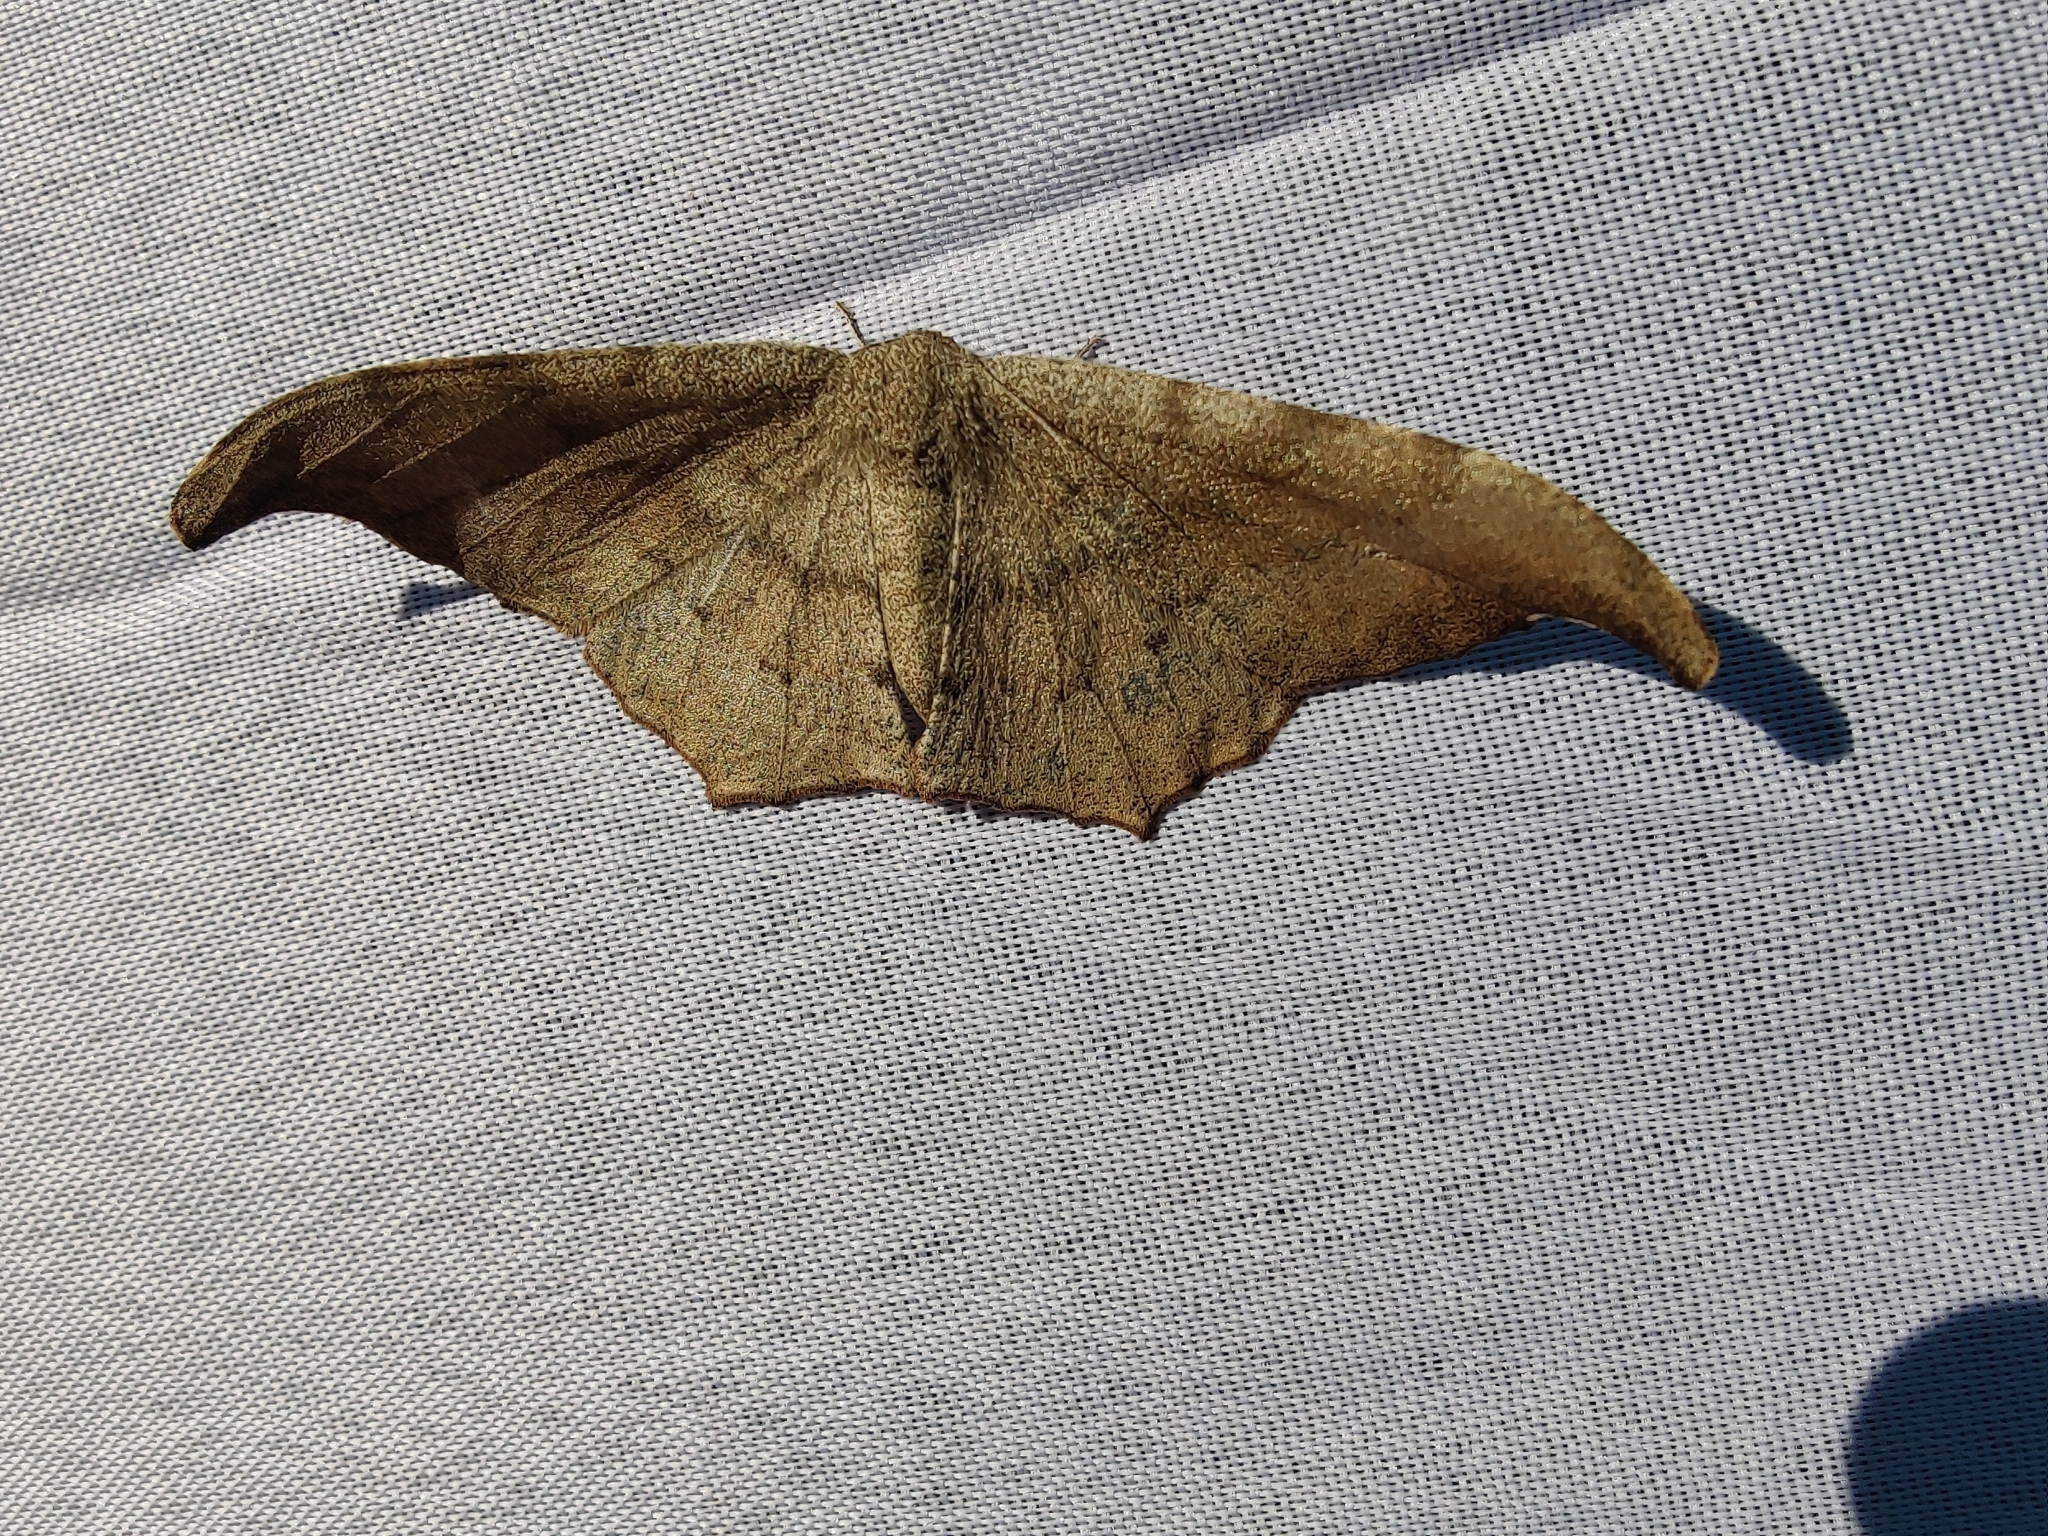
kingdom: Animalia
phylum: Arthropoda
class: Insecta
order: Lepidoptera
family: Geometridae
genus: Hyposidra
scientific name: Hyposidra talaca
